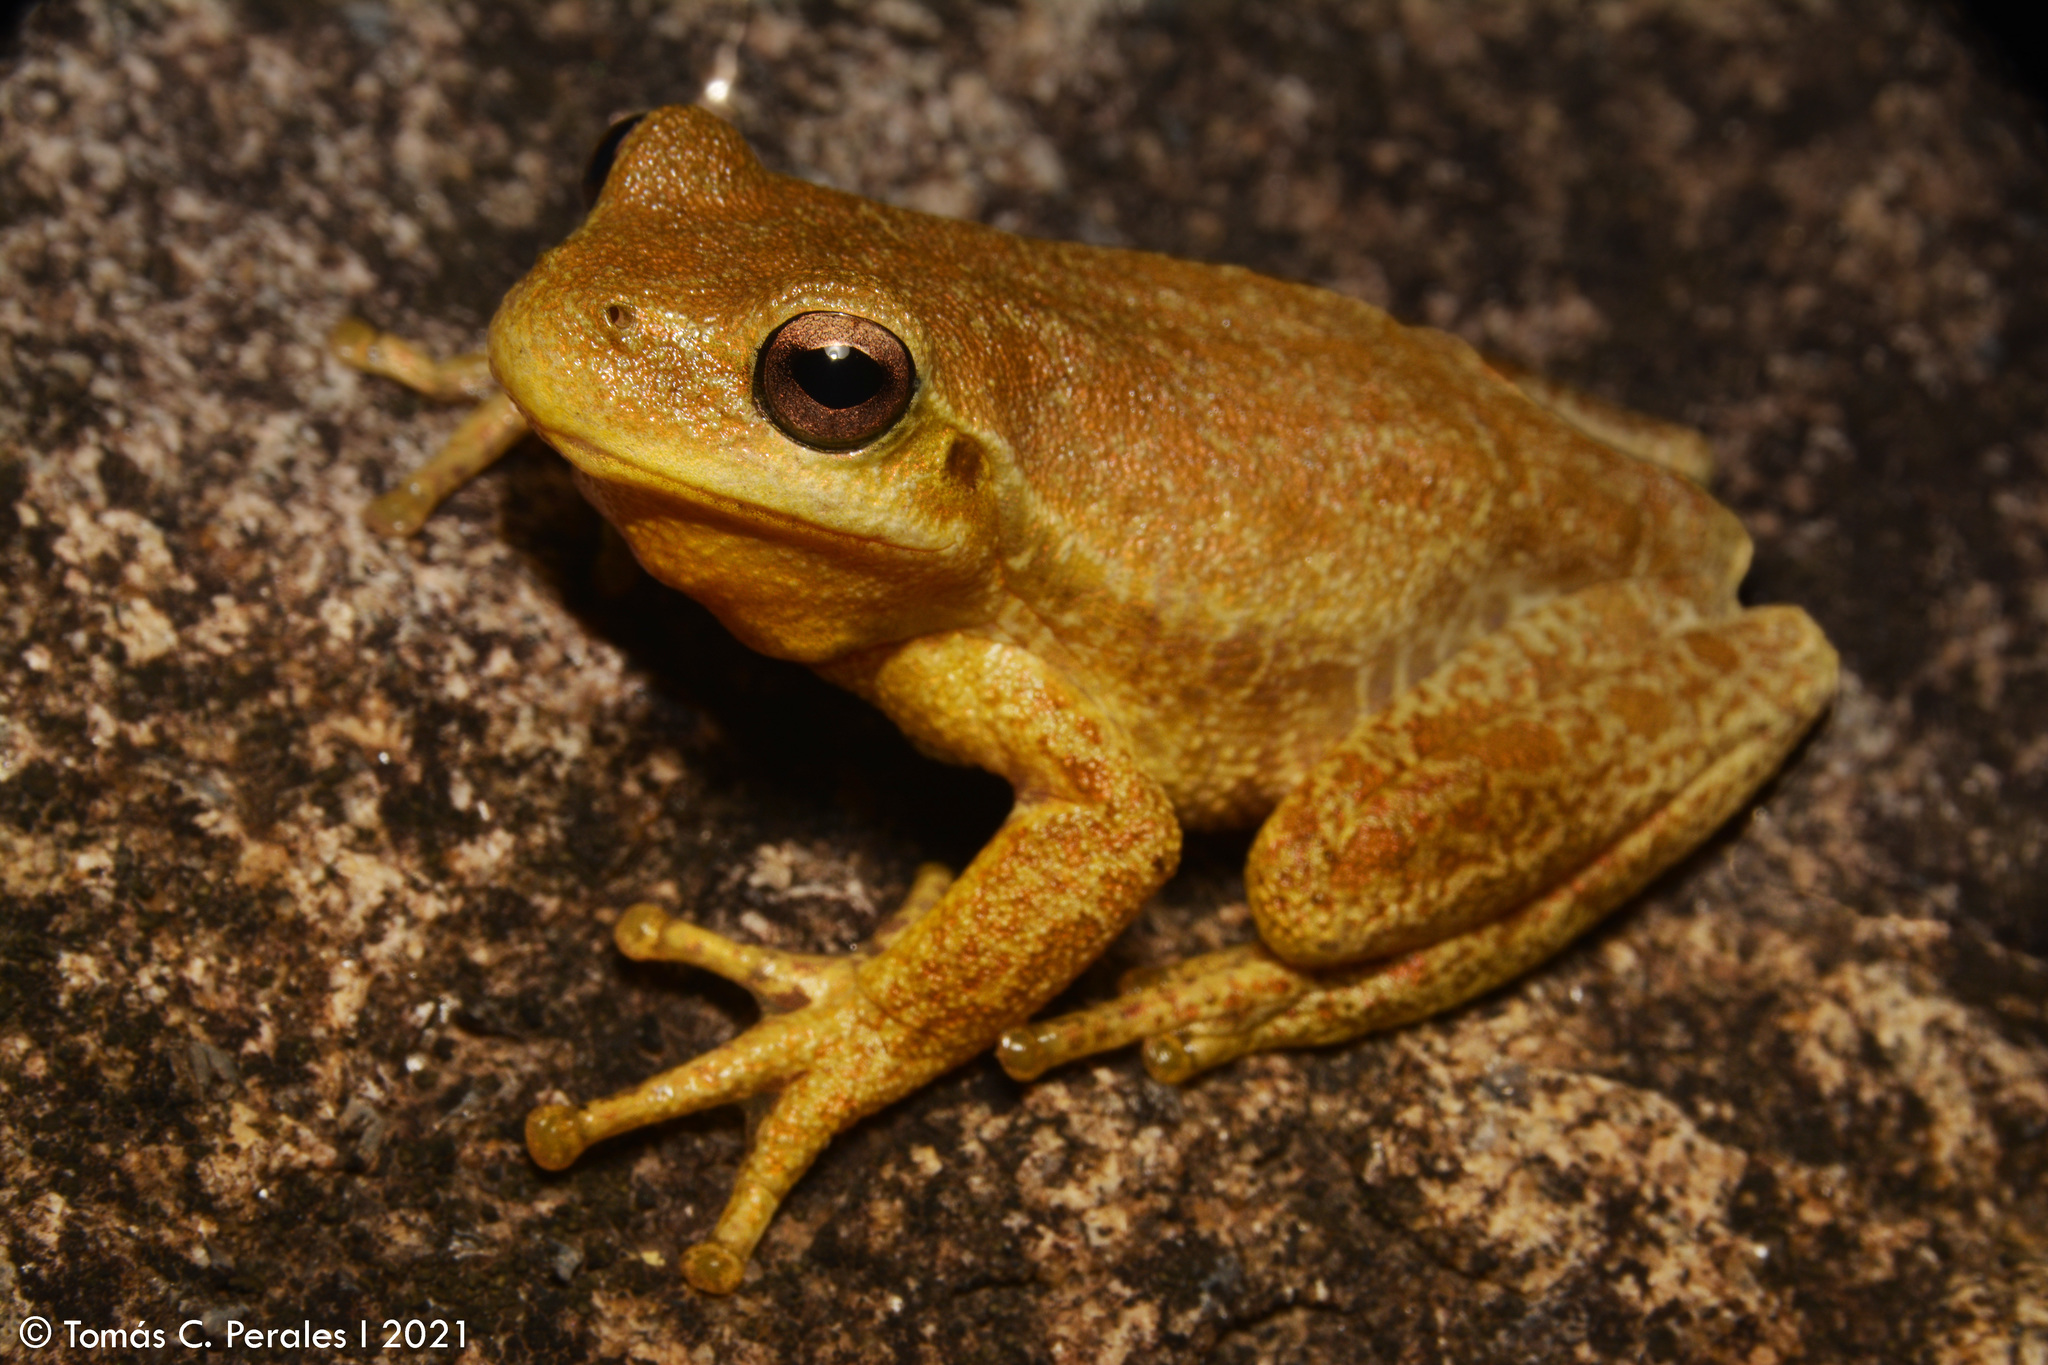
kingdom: Animalia
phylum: Chordata
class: Amphibia
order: Anura
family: Hylidae
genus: Boana
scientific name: Boana cordobae
